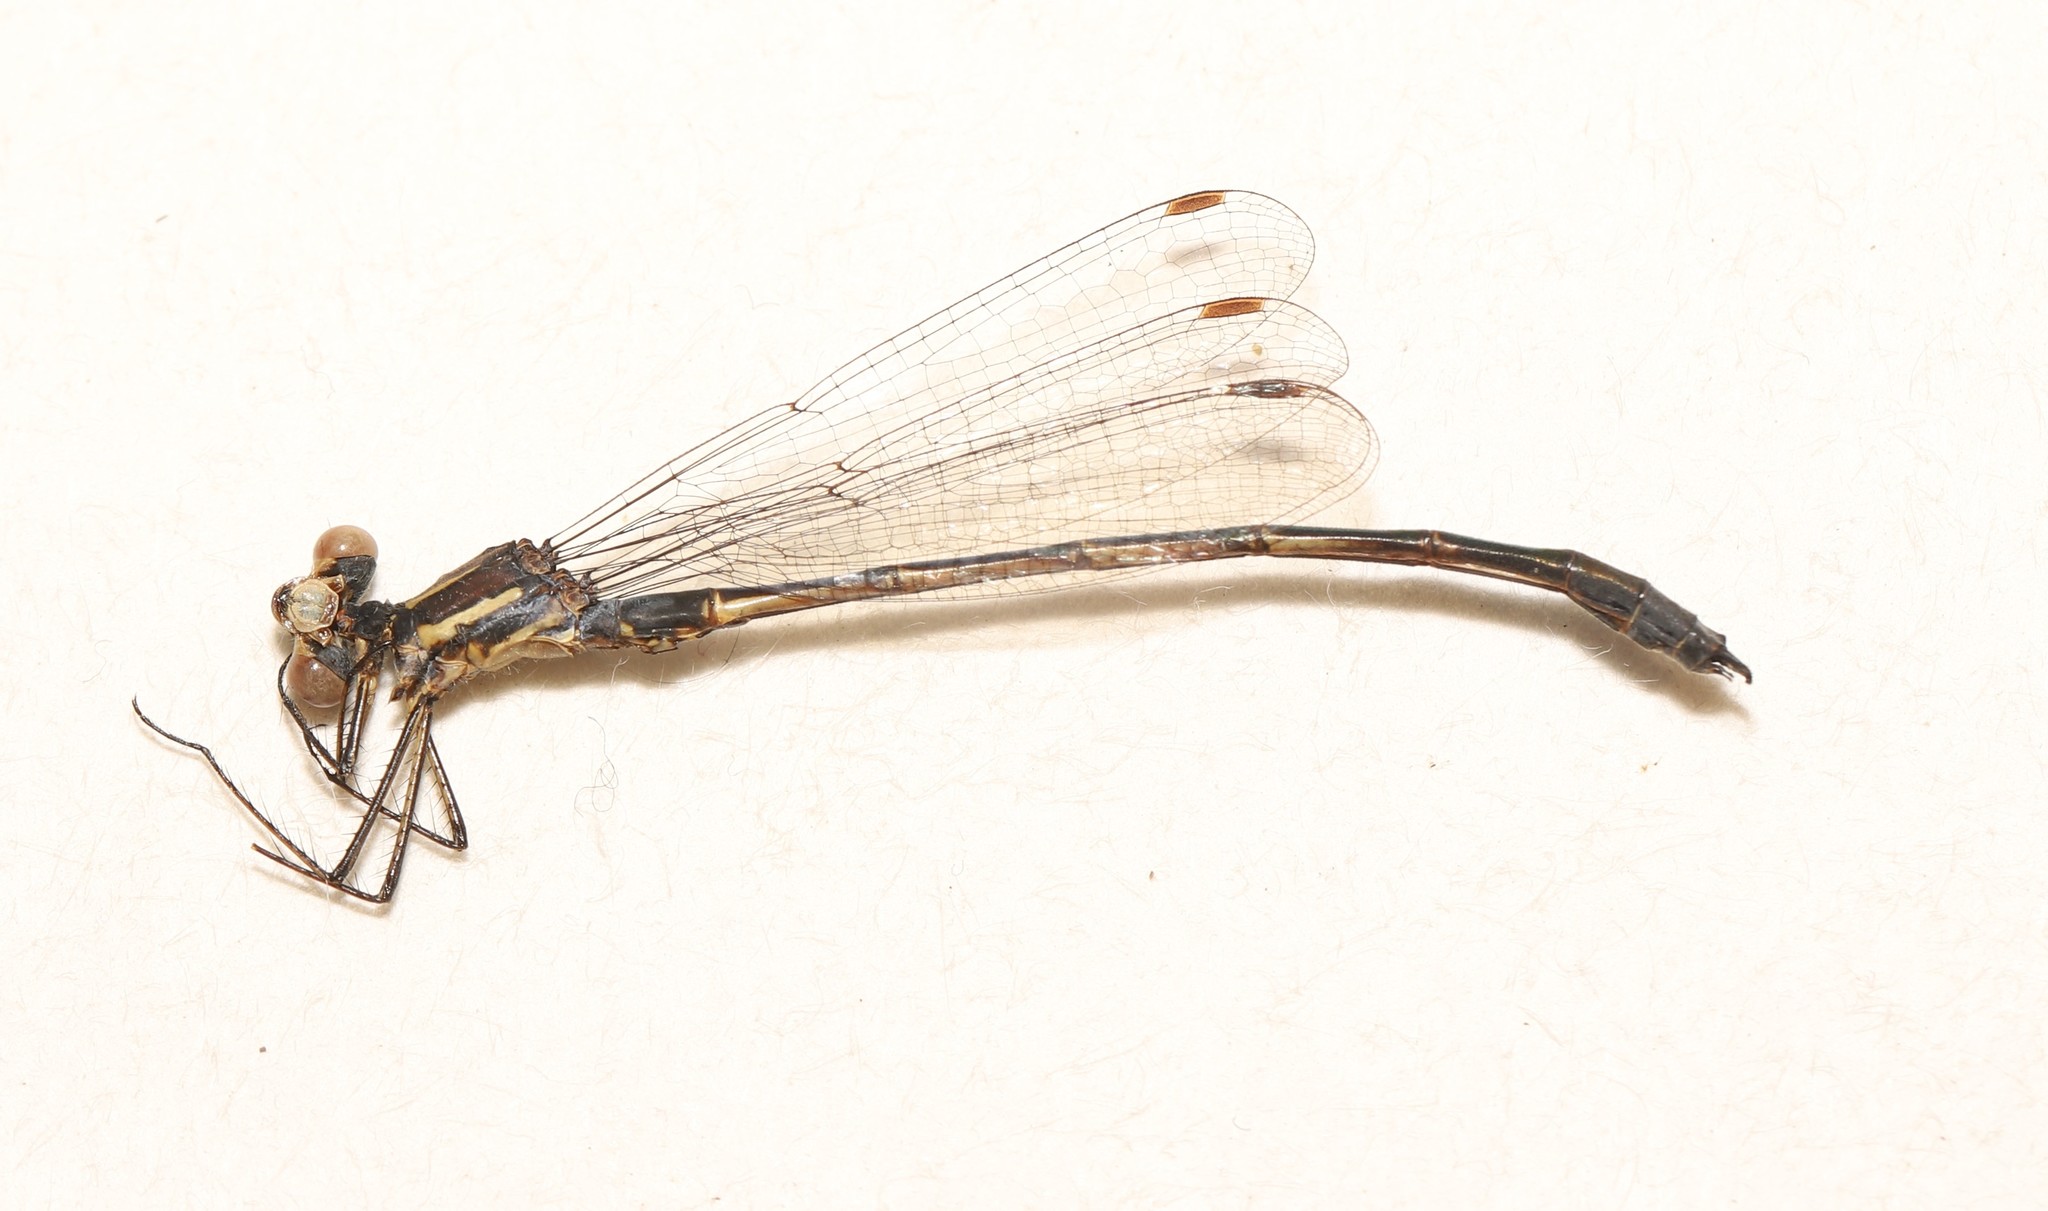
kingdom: Animalia
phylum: Arthropoda
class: Insecta
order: Odonata
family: Lestidae
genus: Lestes
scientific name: Lestes disjunctus
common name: Northern spreadwing
